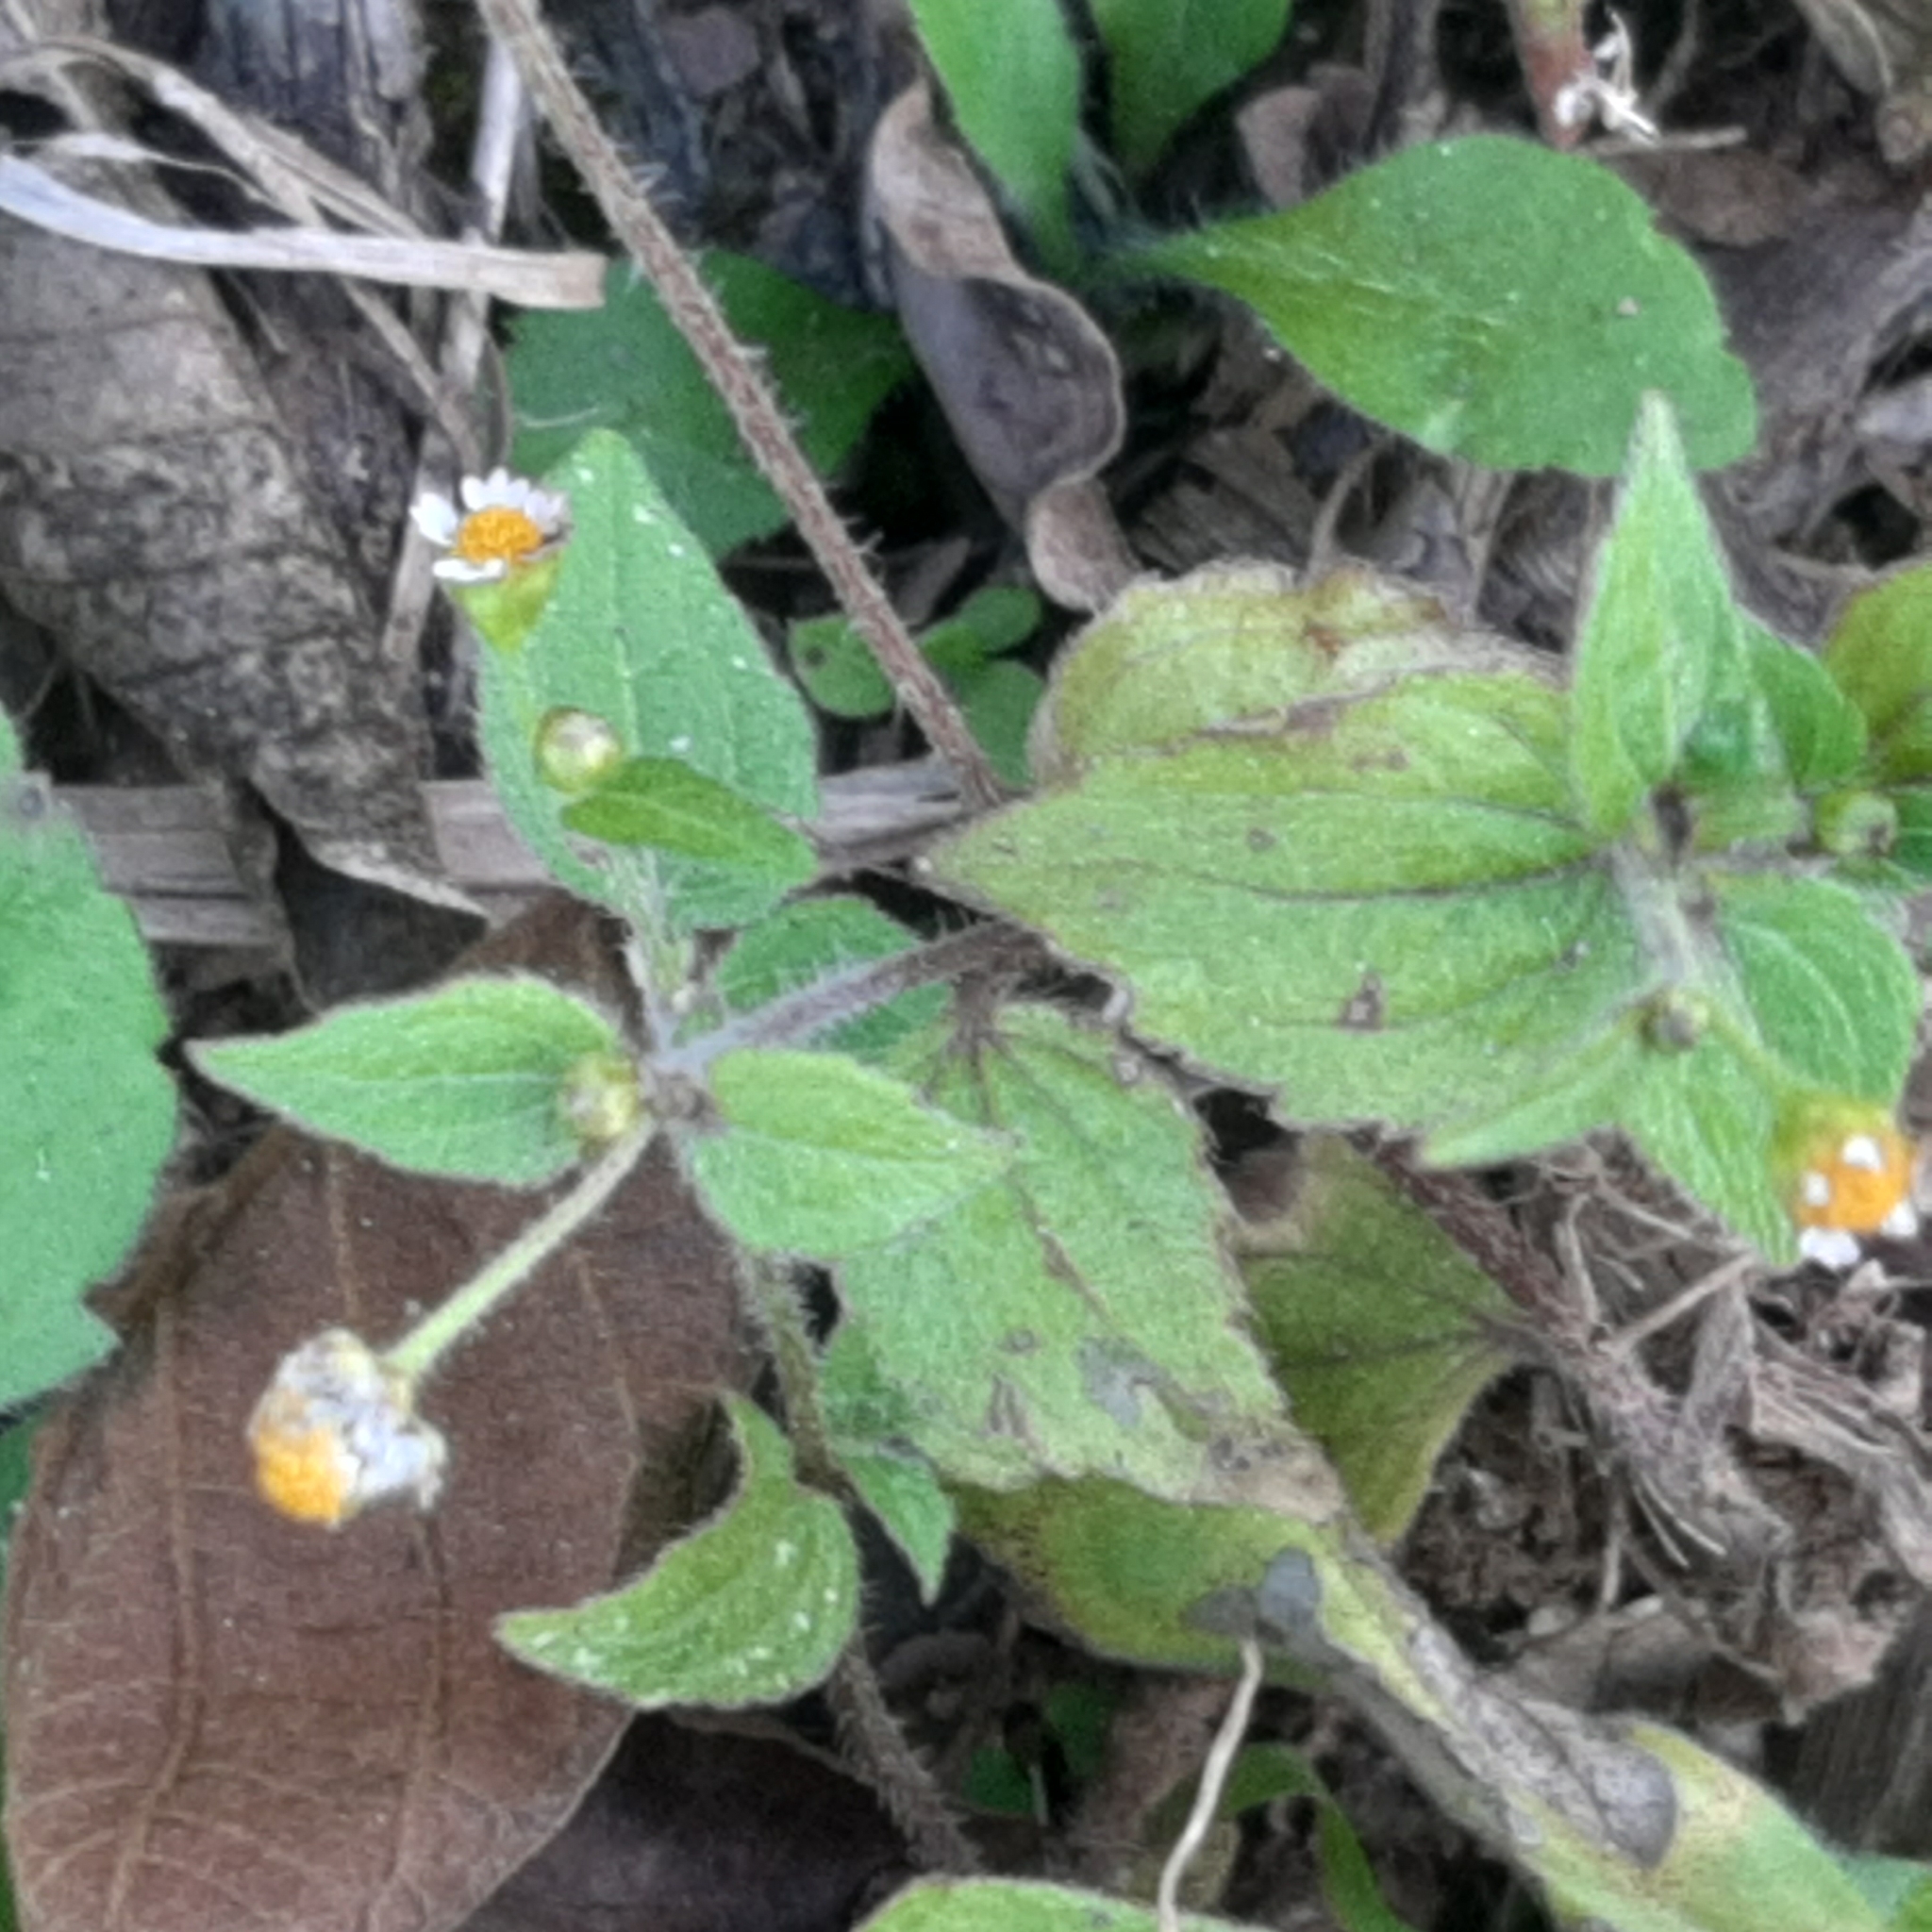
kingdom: Plantae
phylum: Tracheophyta
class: Magnoliopsida
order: Asterales
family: Asteraceae
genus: Galinsoga
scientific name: Galinsoga quadriradiata
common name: Shaggy soldier
